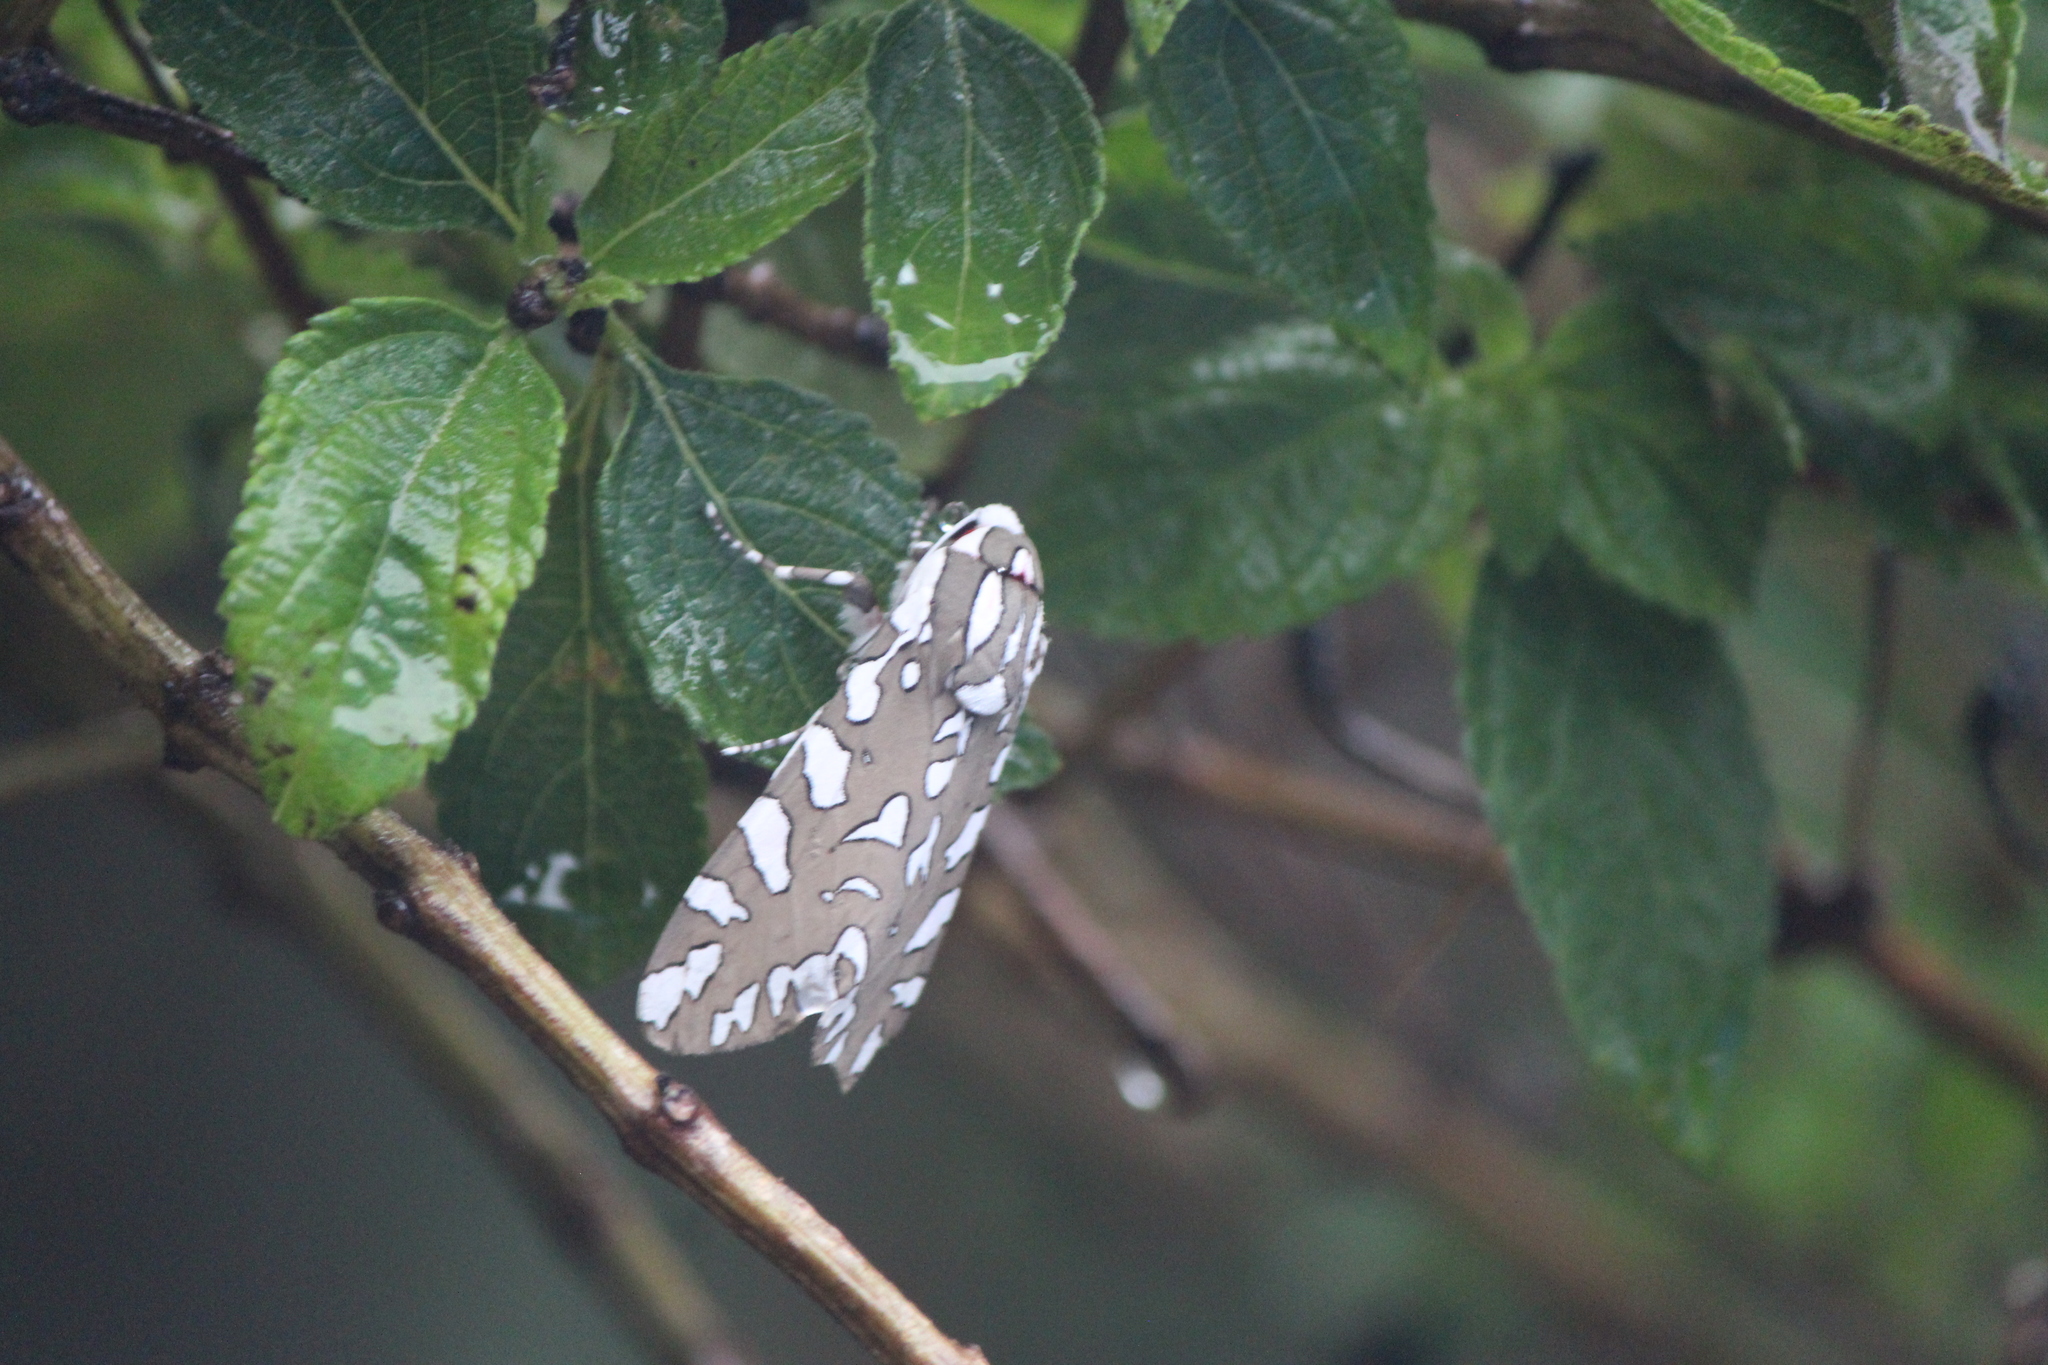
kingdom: Animalia
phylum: Arthropoda
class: Insecta
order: Lepidoptera
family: Erebidae
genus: Arachnis
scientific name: Arachnis dilecta
